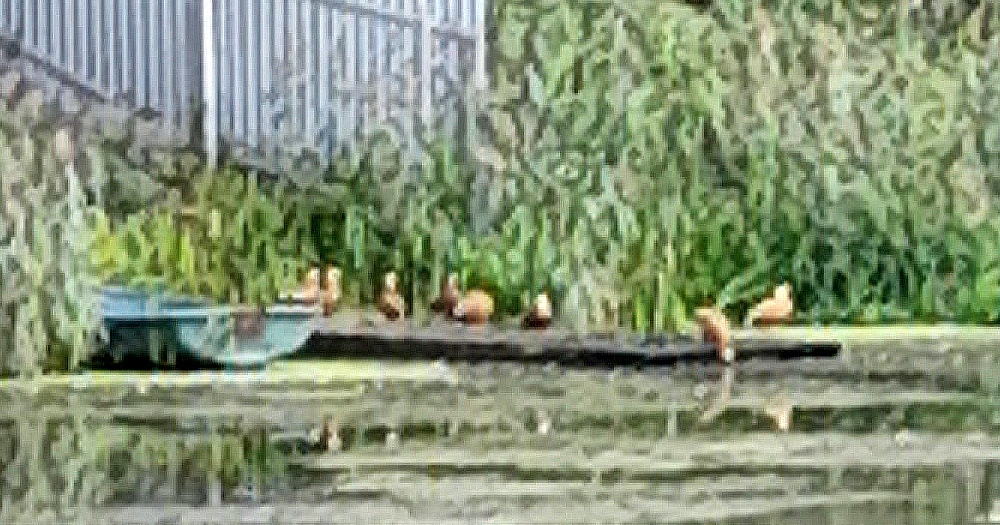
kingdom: Animalia
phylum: Chordata
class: Aves
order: Anseriformes
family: Anatidae
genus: Tadorna
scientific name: Tadorna ferruginea
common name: Ruddy shelduck
